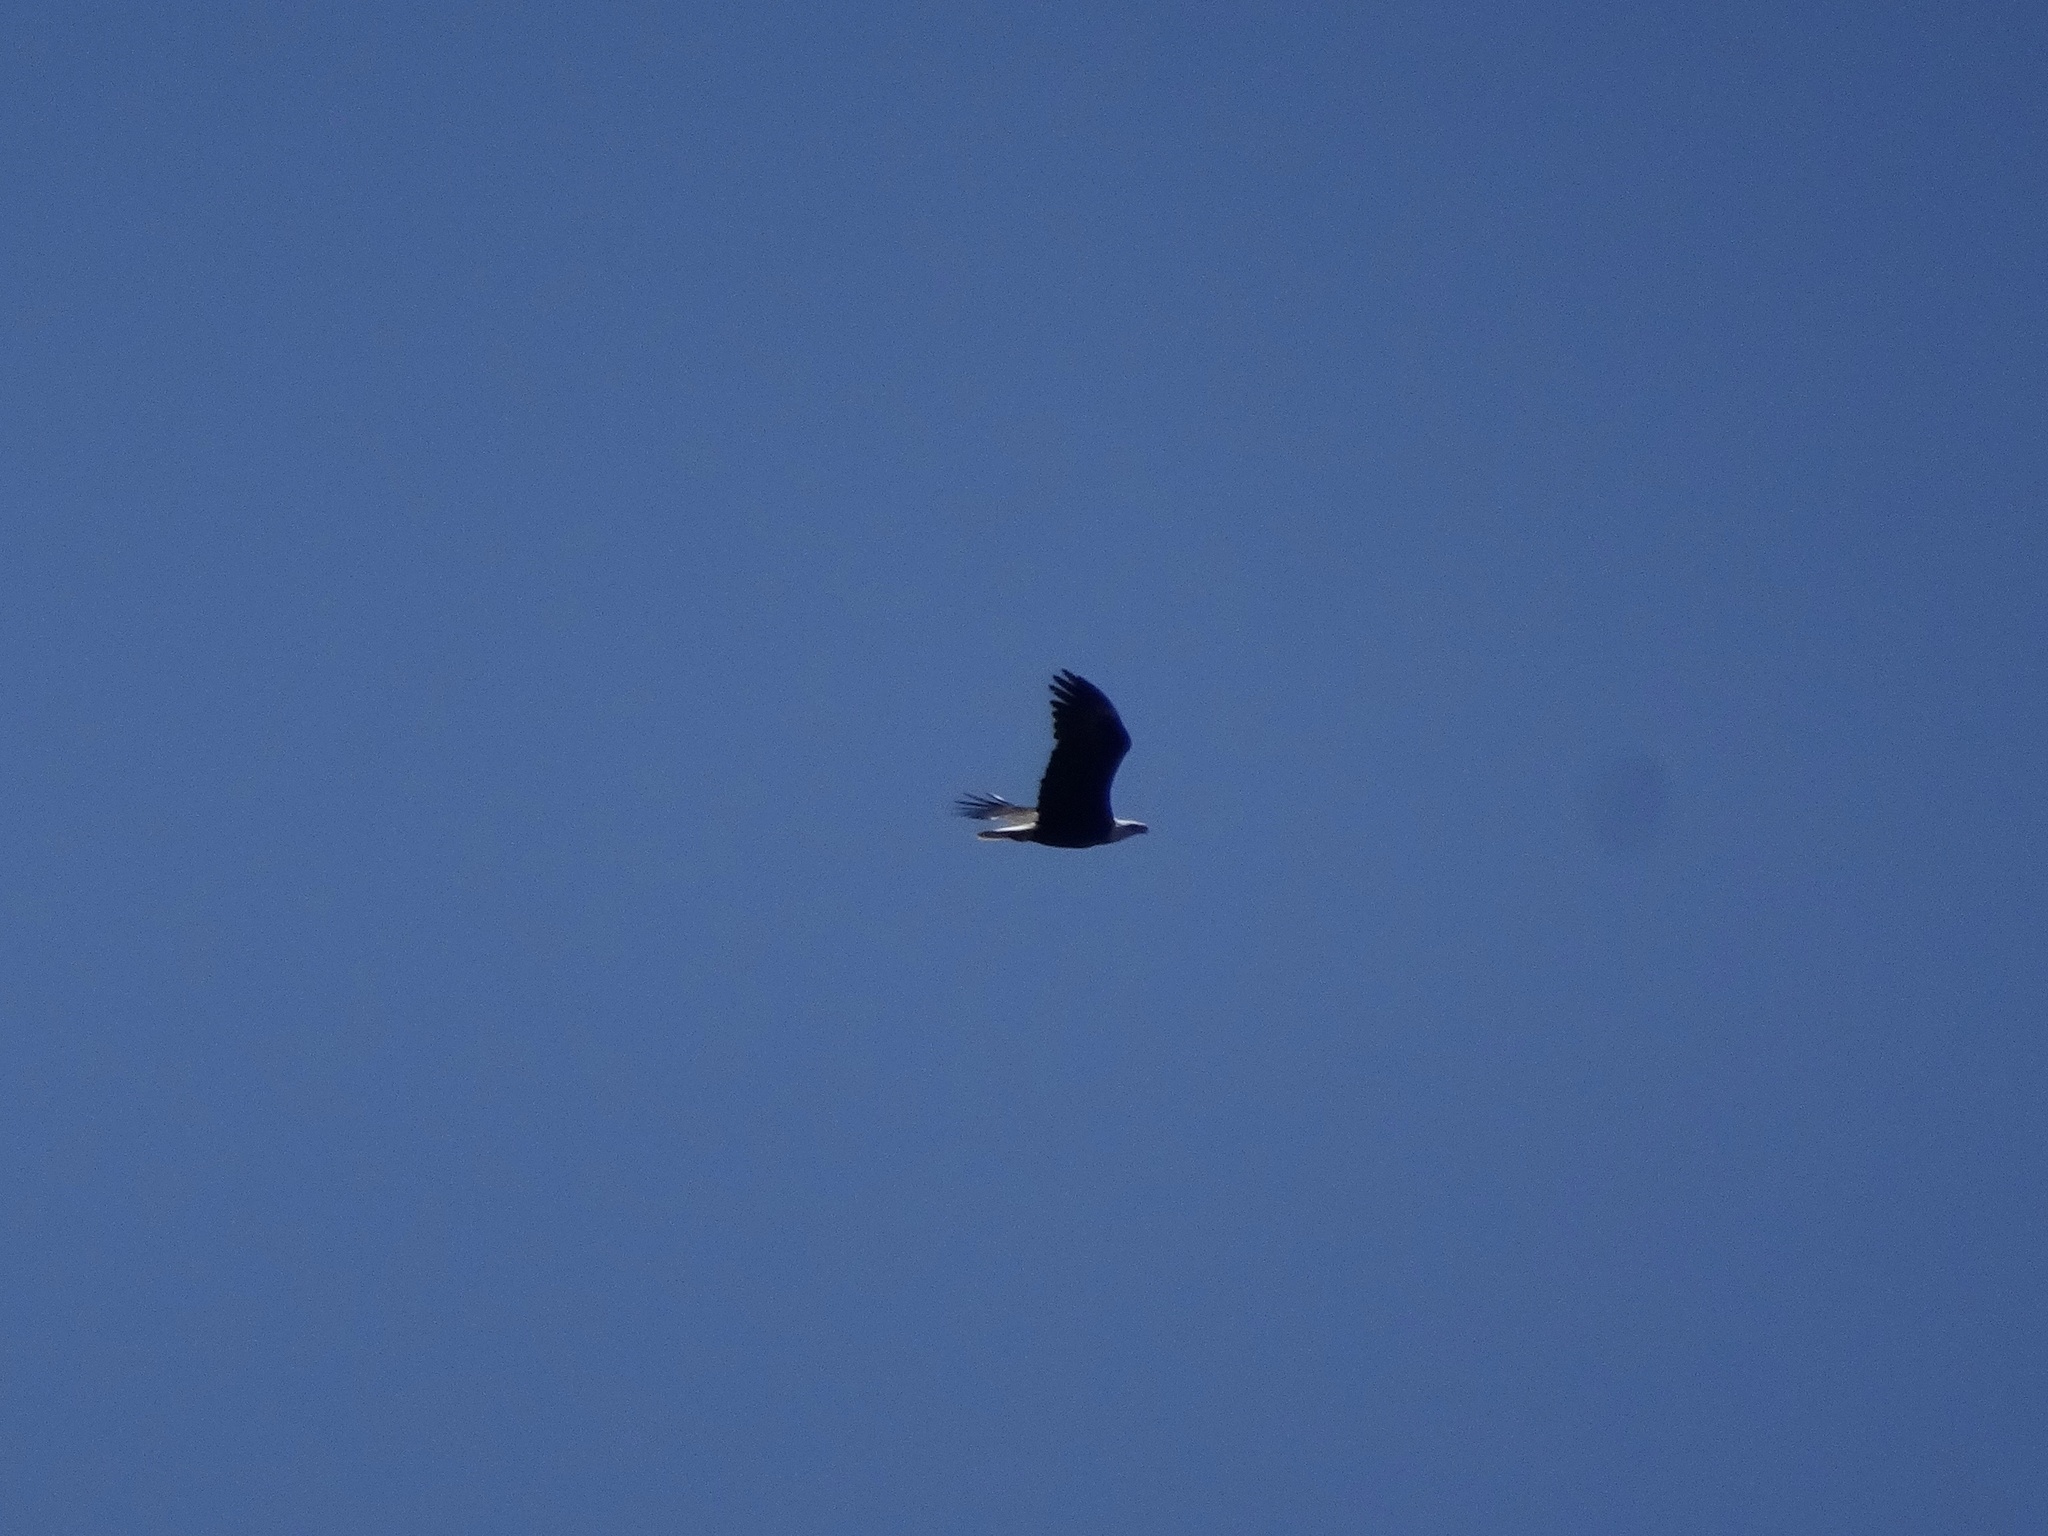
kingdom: Animalia
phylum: Chordata
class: Aves
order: Accipitriformes
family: Accipitridae
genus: Haliaeetus
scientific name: Haliaeetus leucocephalus
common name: Bald eagle
